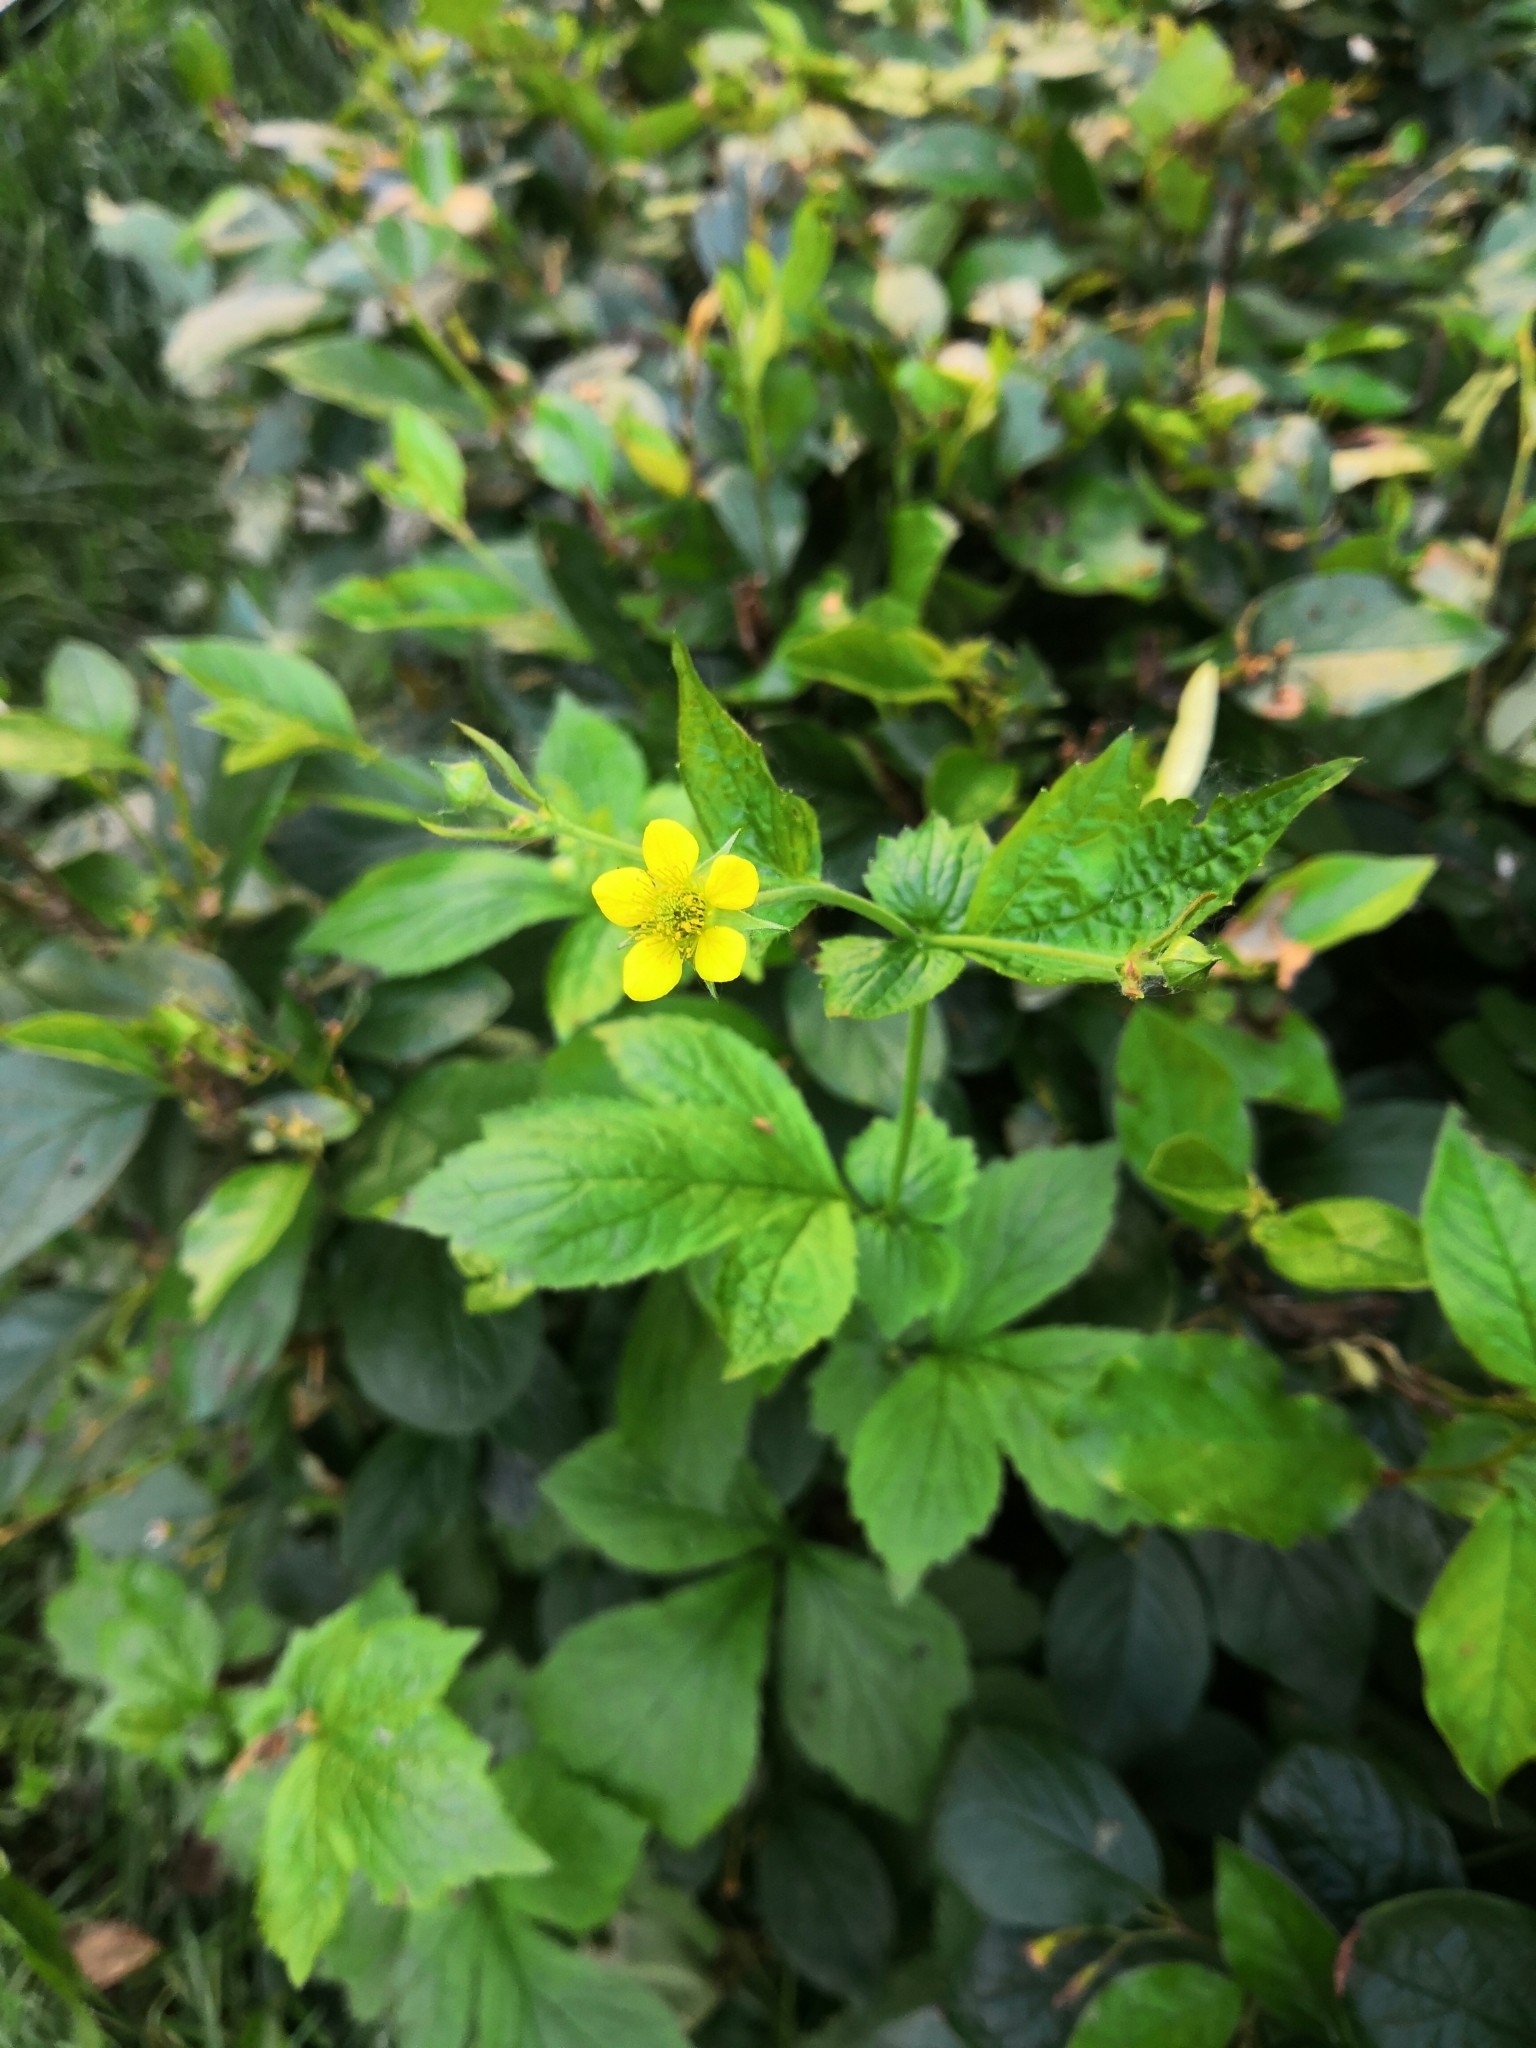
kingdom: Plantae
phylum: Tracheophyta
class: Magnoliopsida
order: Rosales
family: Rosaceae
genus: Geum
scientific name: Geum urbanum
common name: Wood avens
